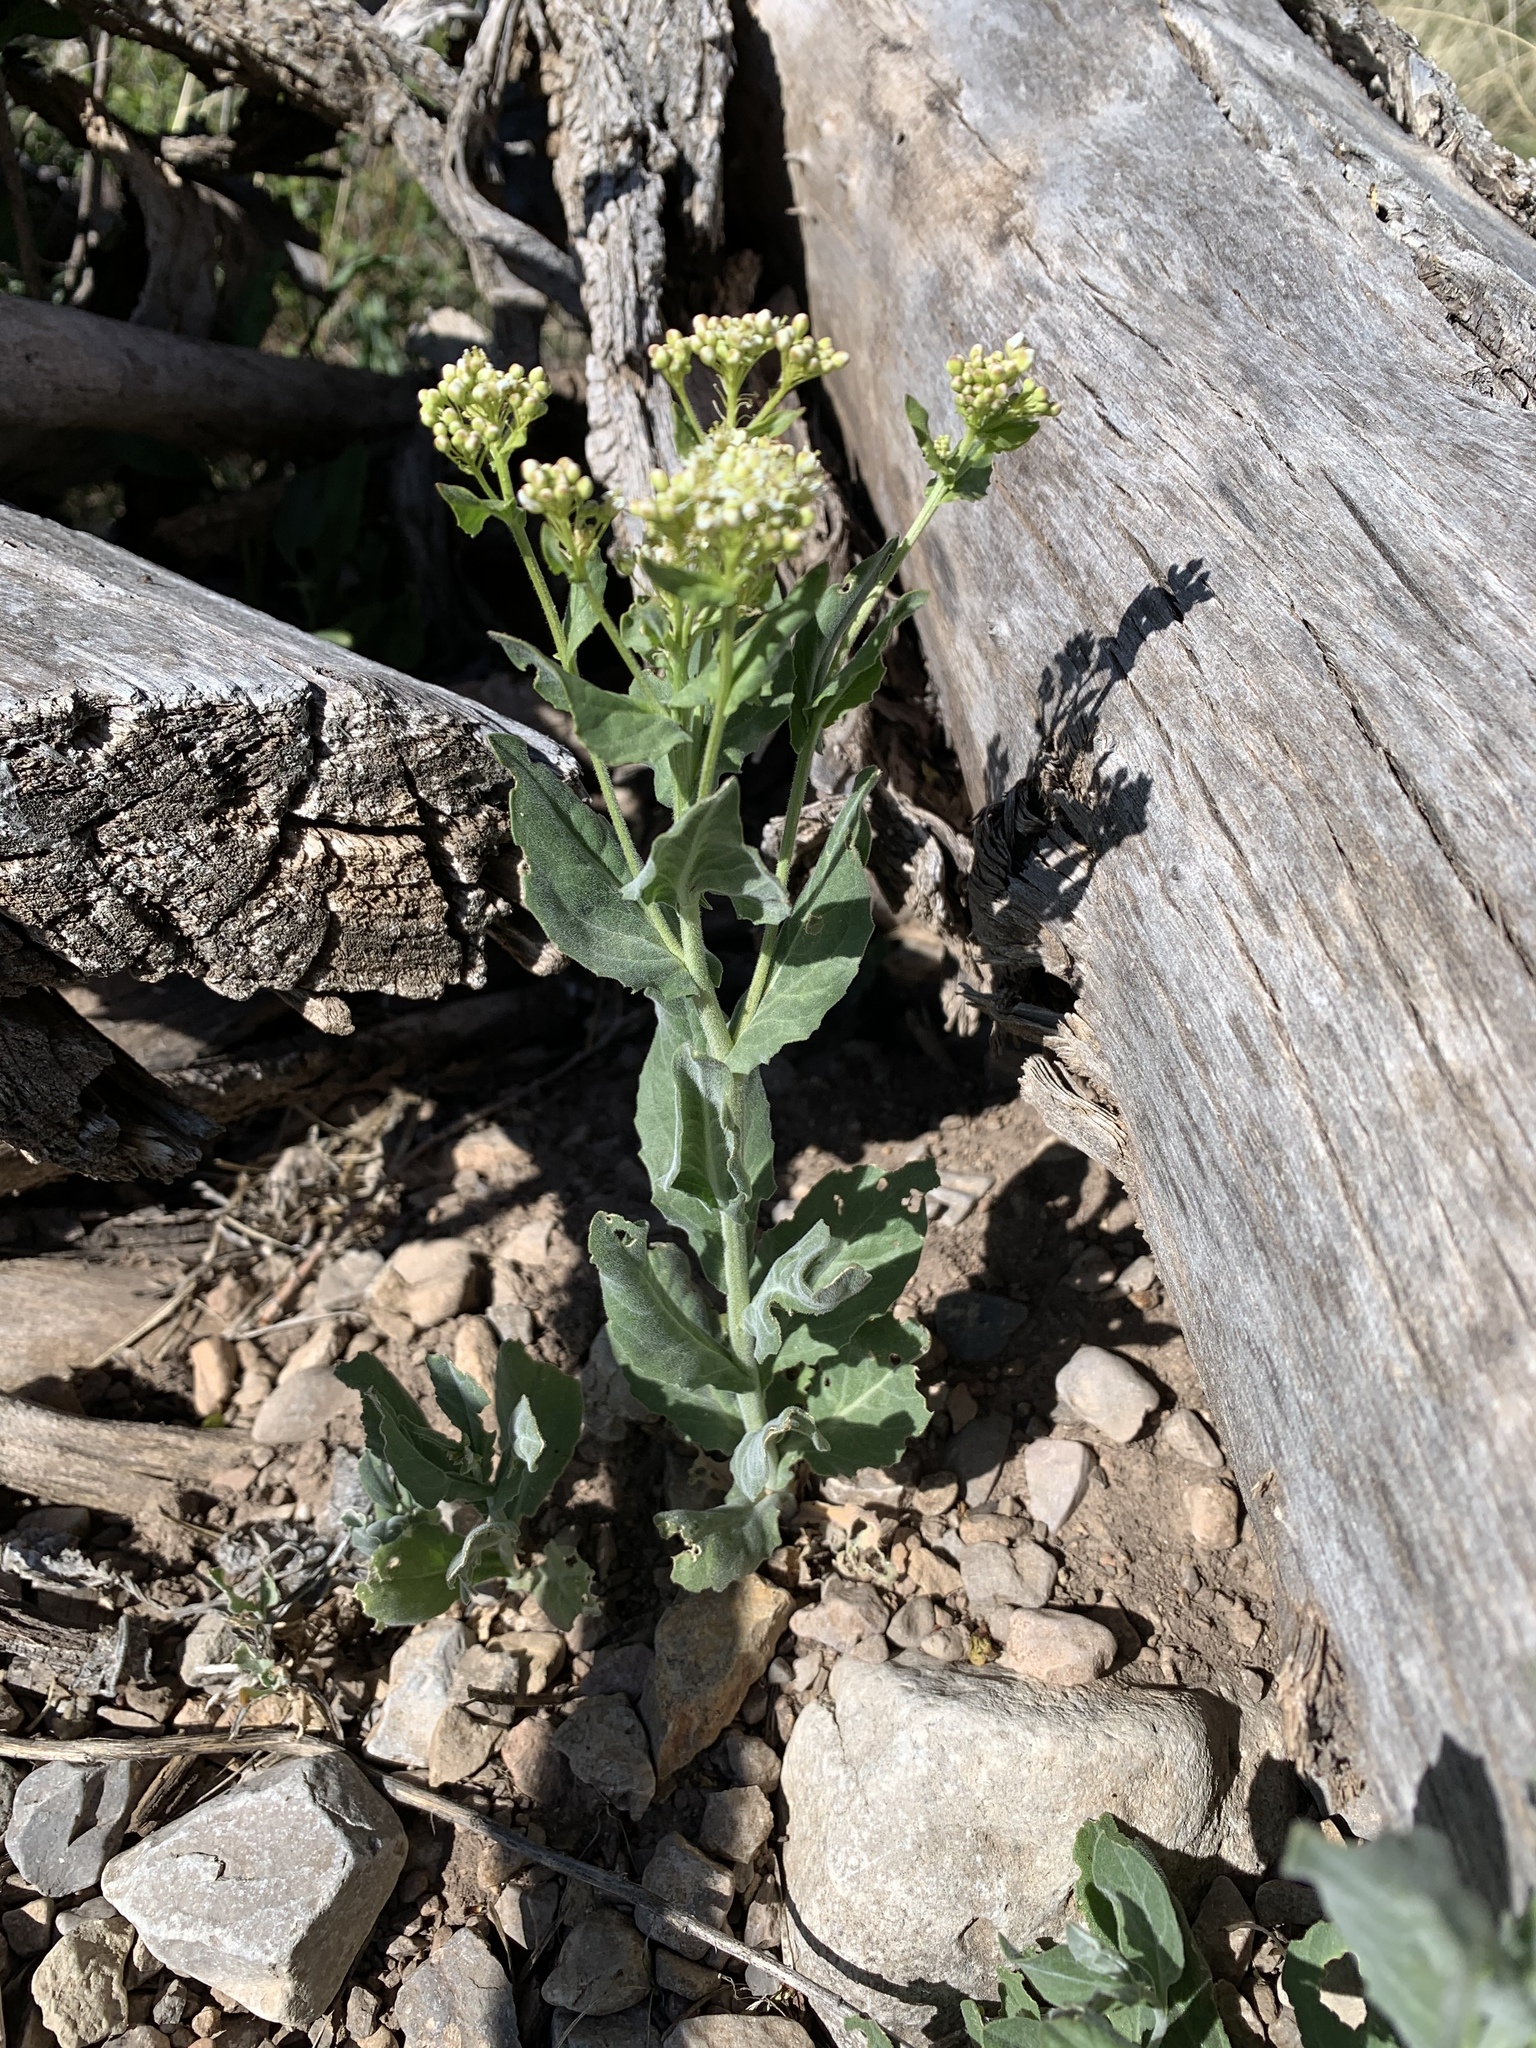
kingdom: Plantae
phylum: Tracheophyta
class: Magnoliopsida
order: Brassicales
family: Brassicaceae
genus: Lepidium
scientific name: Lepidium draba
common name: Hoary cress
